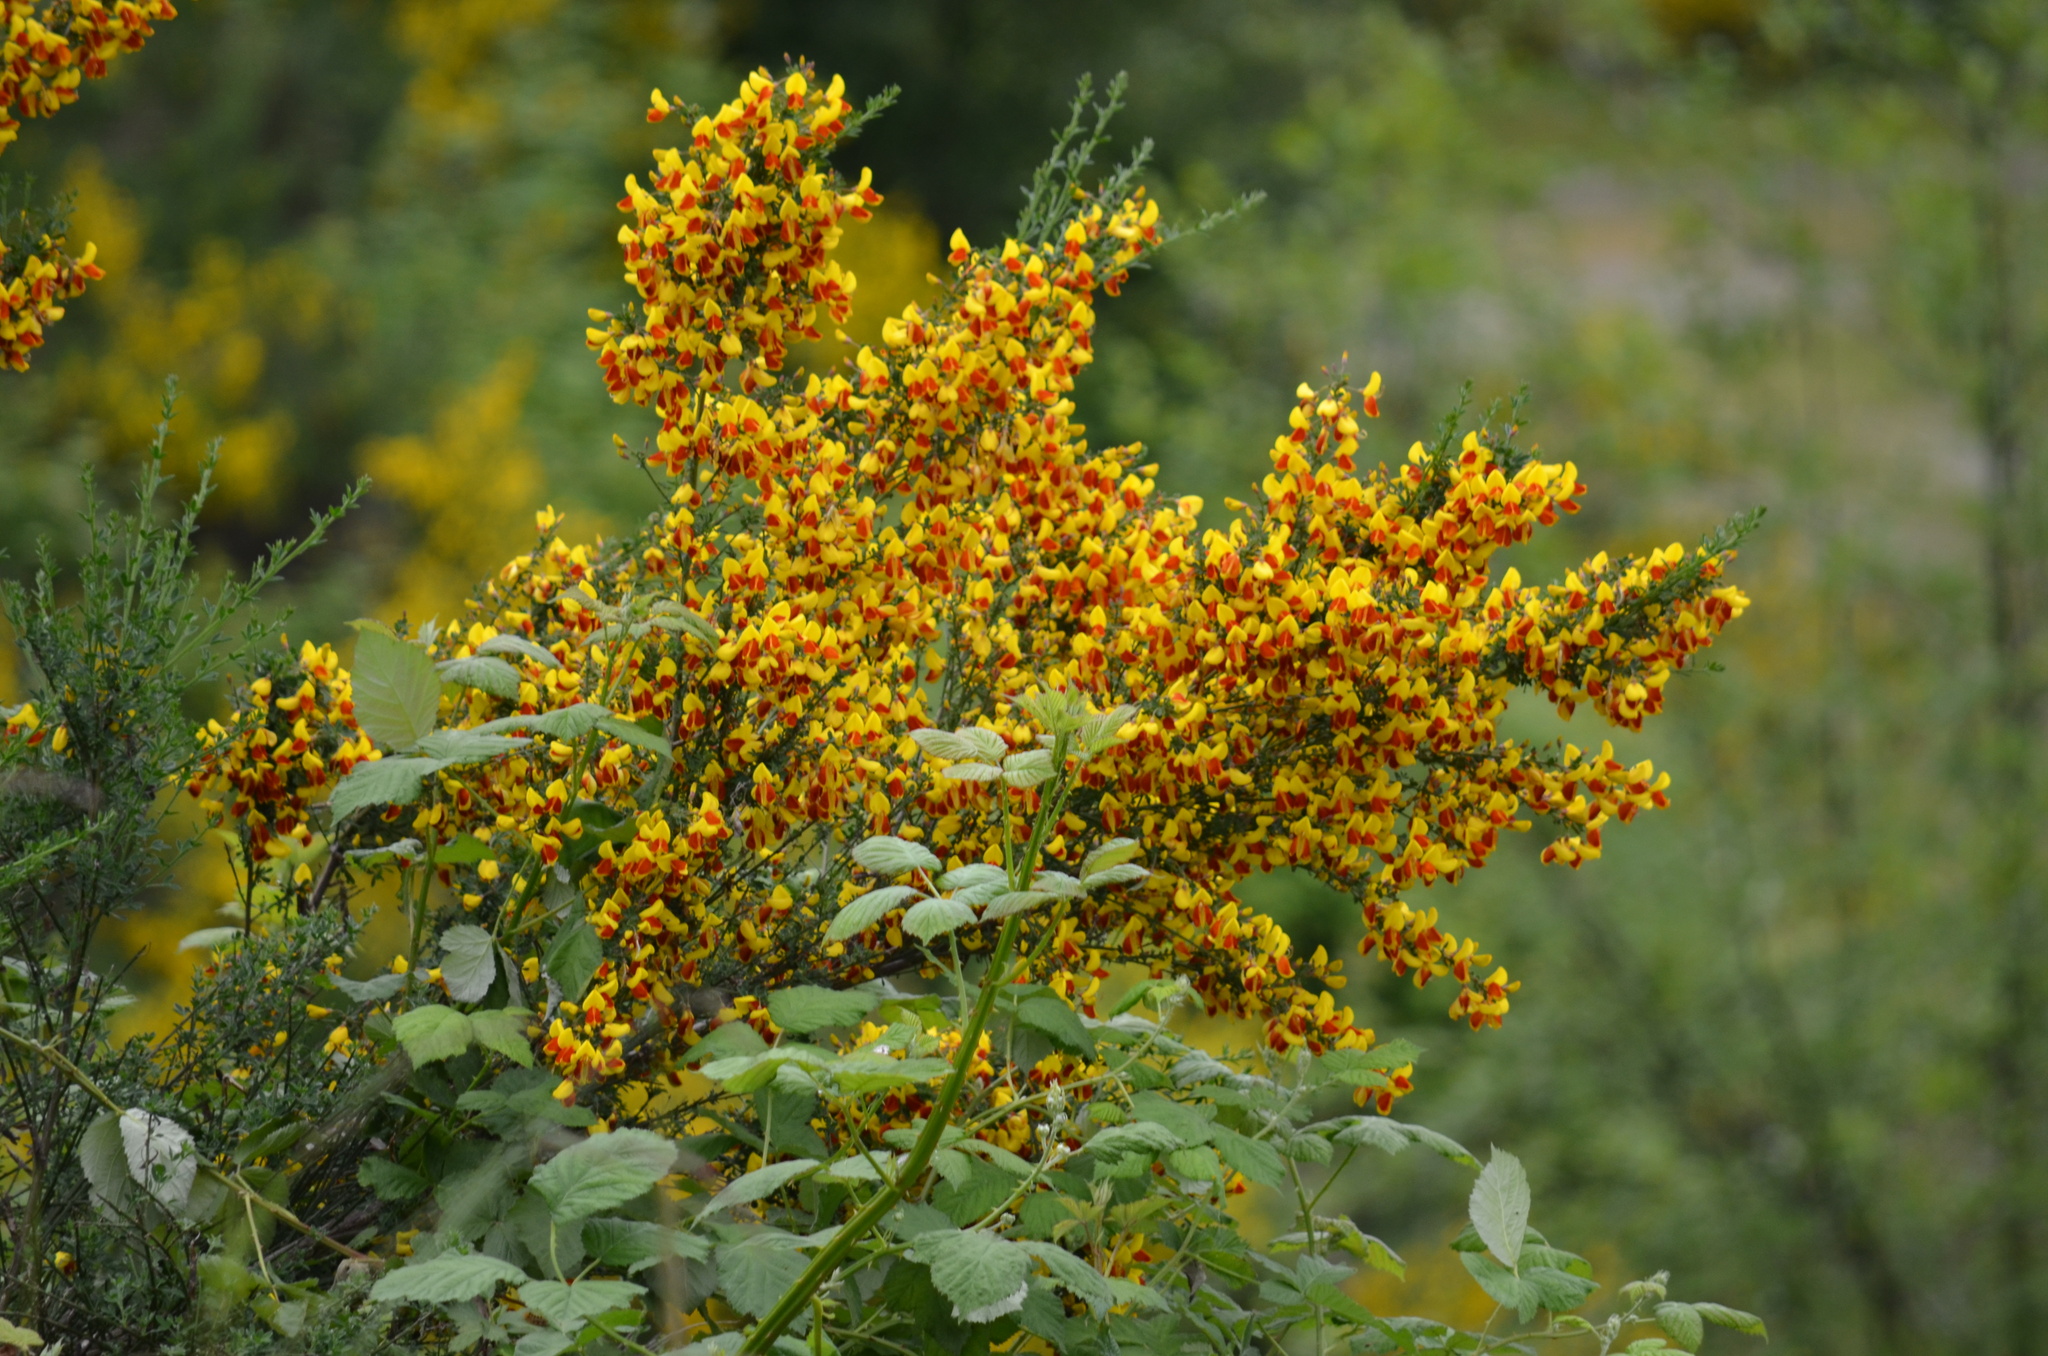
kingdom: Plantae
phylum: Tracheophyta
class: Magnoliopsida
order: Fabales
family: Fabaceae
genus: Cytisus
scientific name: Cytisus scoparius
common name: Scotch broom
